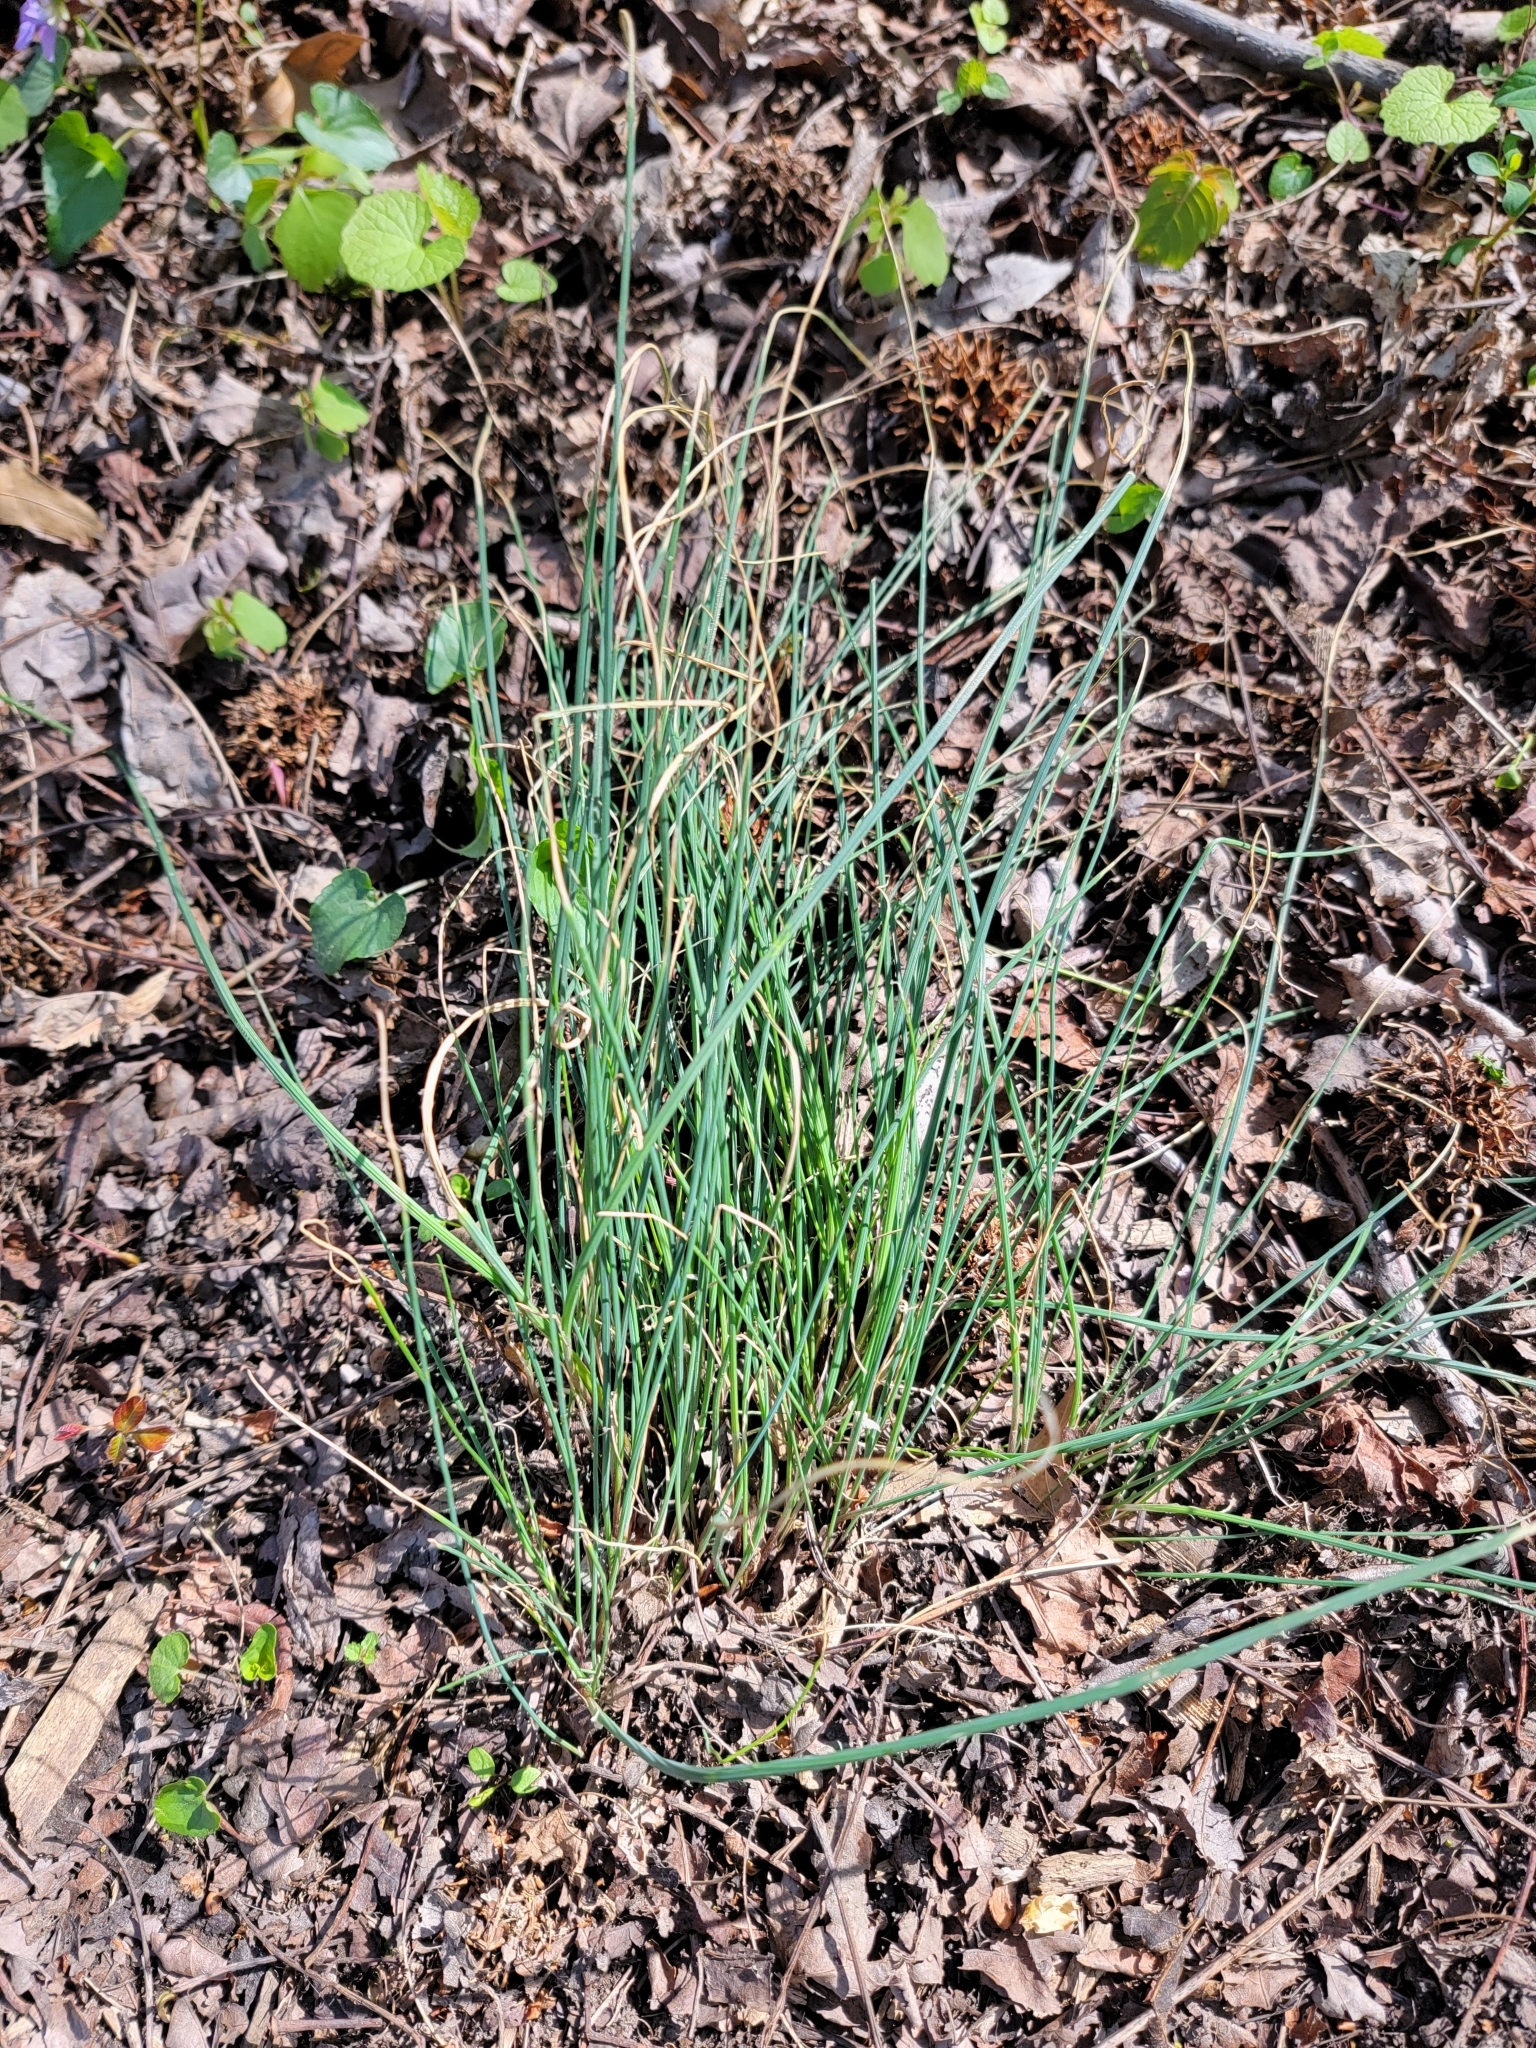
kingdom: Plantae
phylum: Tracheophyta
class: Liliopsida
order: Asparagales
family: Amaryllidaceae
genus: Allium
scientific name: Allium vineale
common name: Crow garlic
